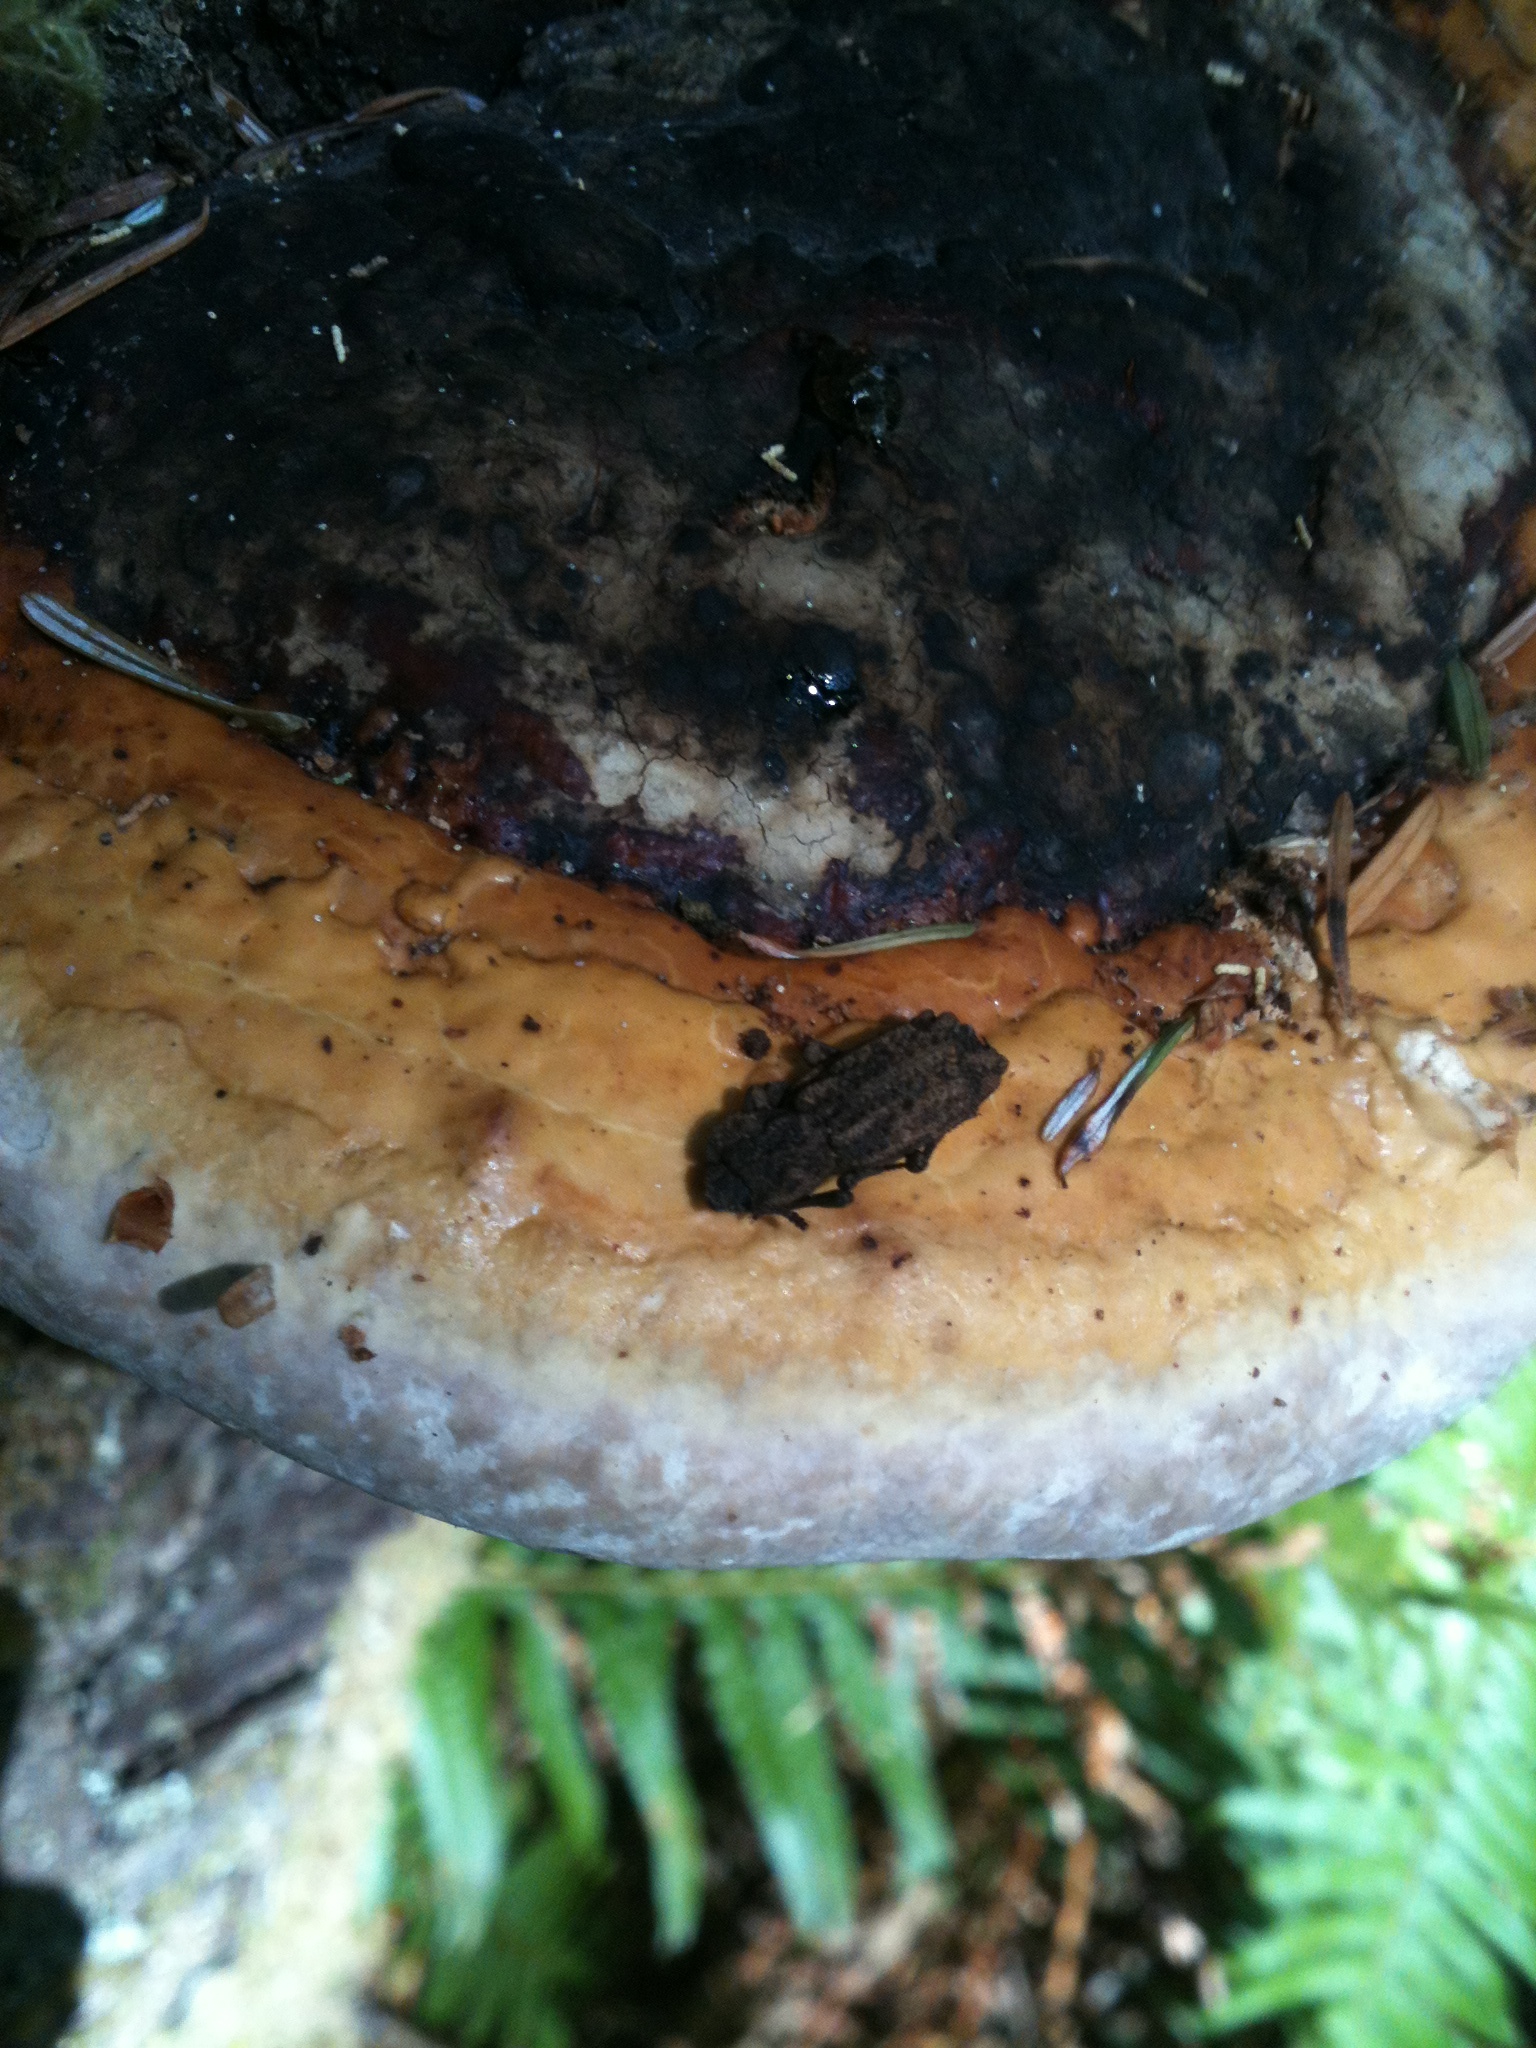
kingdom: Animalia
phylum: Arthropoda
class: Insecta
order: Coleoptera
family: Zopheridae
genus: Phellopsis
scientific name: Phellopsis porcata
